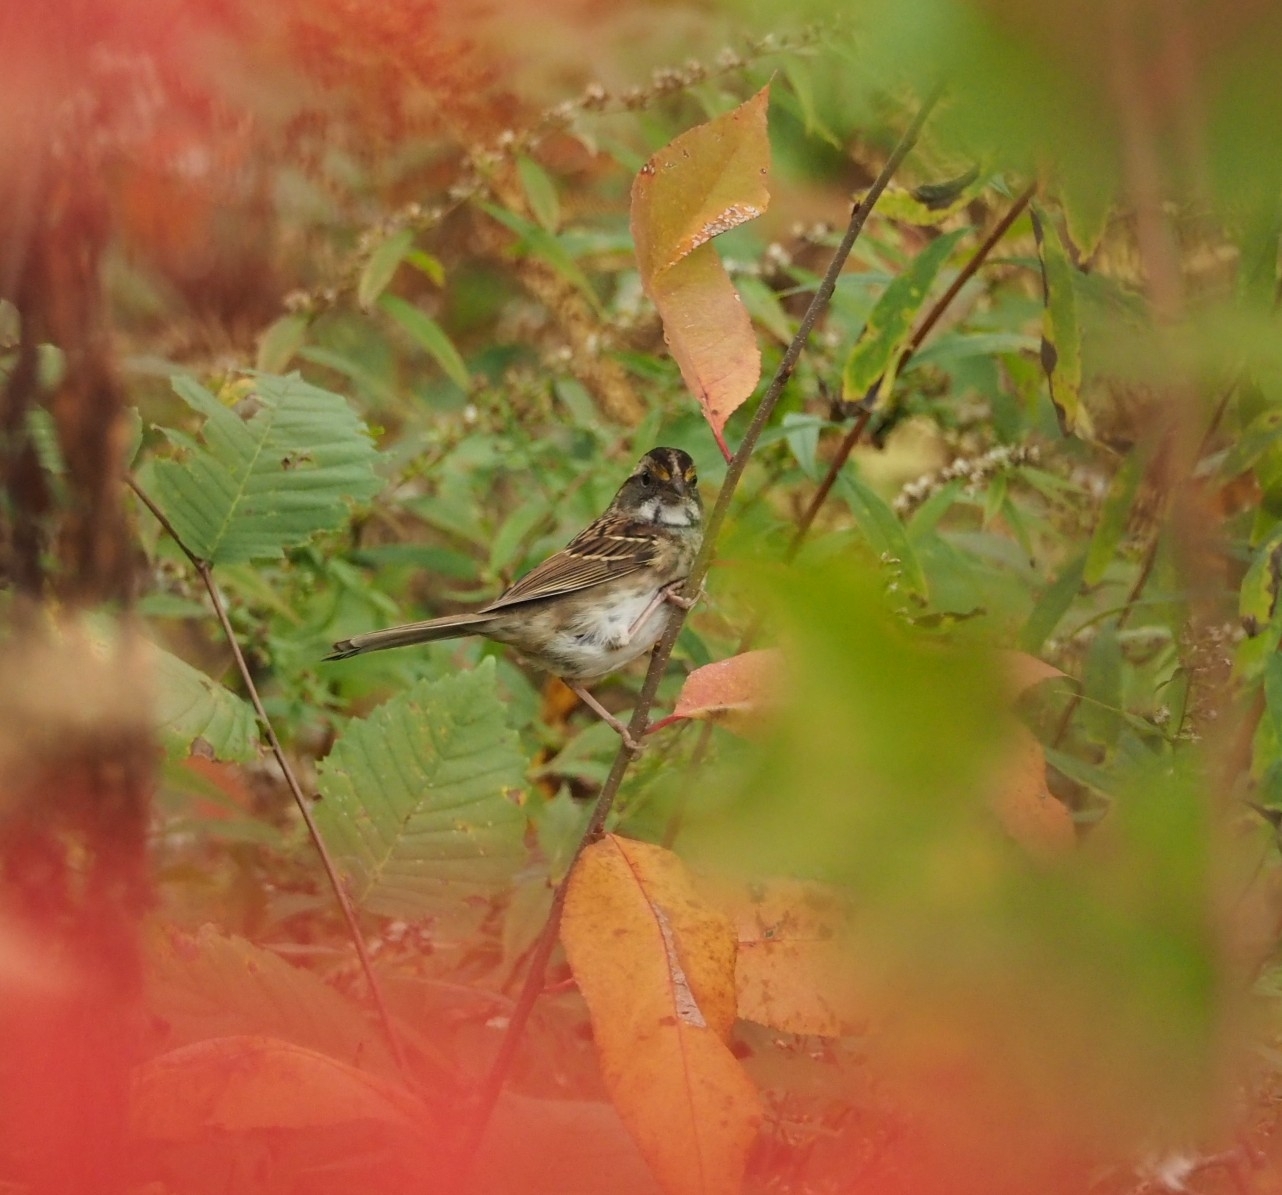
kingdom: Animalia
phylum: Chordata
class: Aves
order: Passeriformes
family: Passerellidae
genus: Zonotrichia
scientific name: Zonotrichia albicollis
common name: White-throated sparrow
